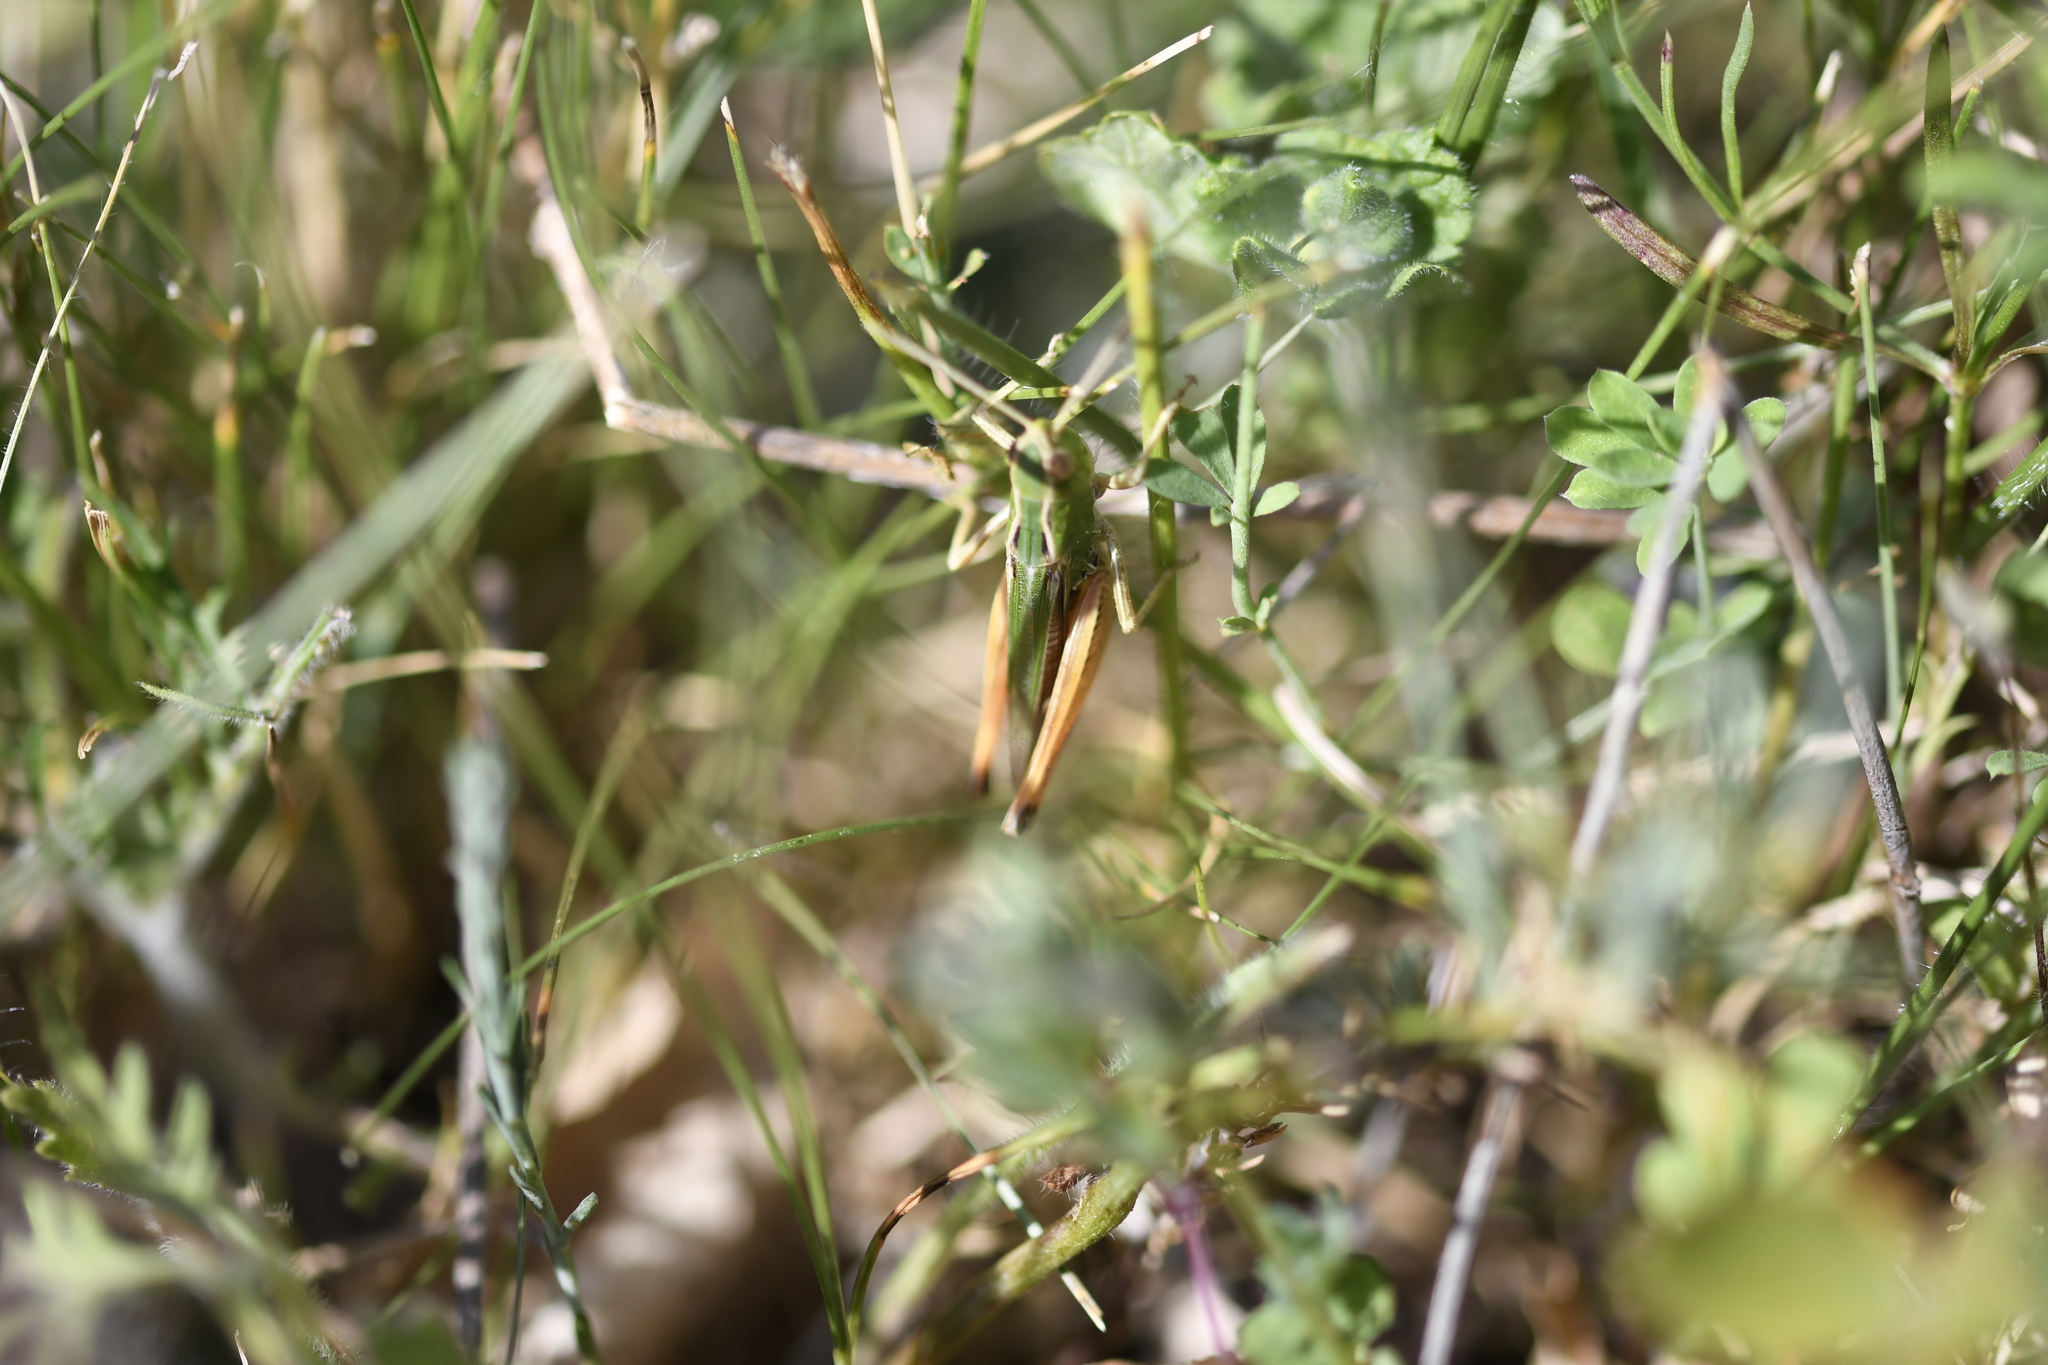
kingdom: Animalia
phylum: Arthropoda
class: Insecta
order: Orthoptera
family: Acrididae
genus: Stenobothrus
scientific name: Stenobothrus lineatus
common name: Stripe-winged grasshopper
